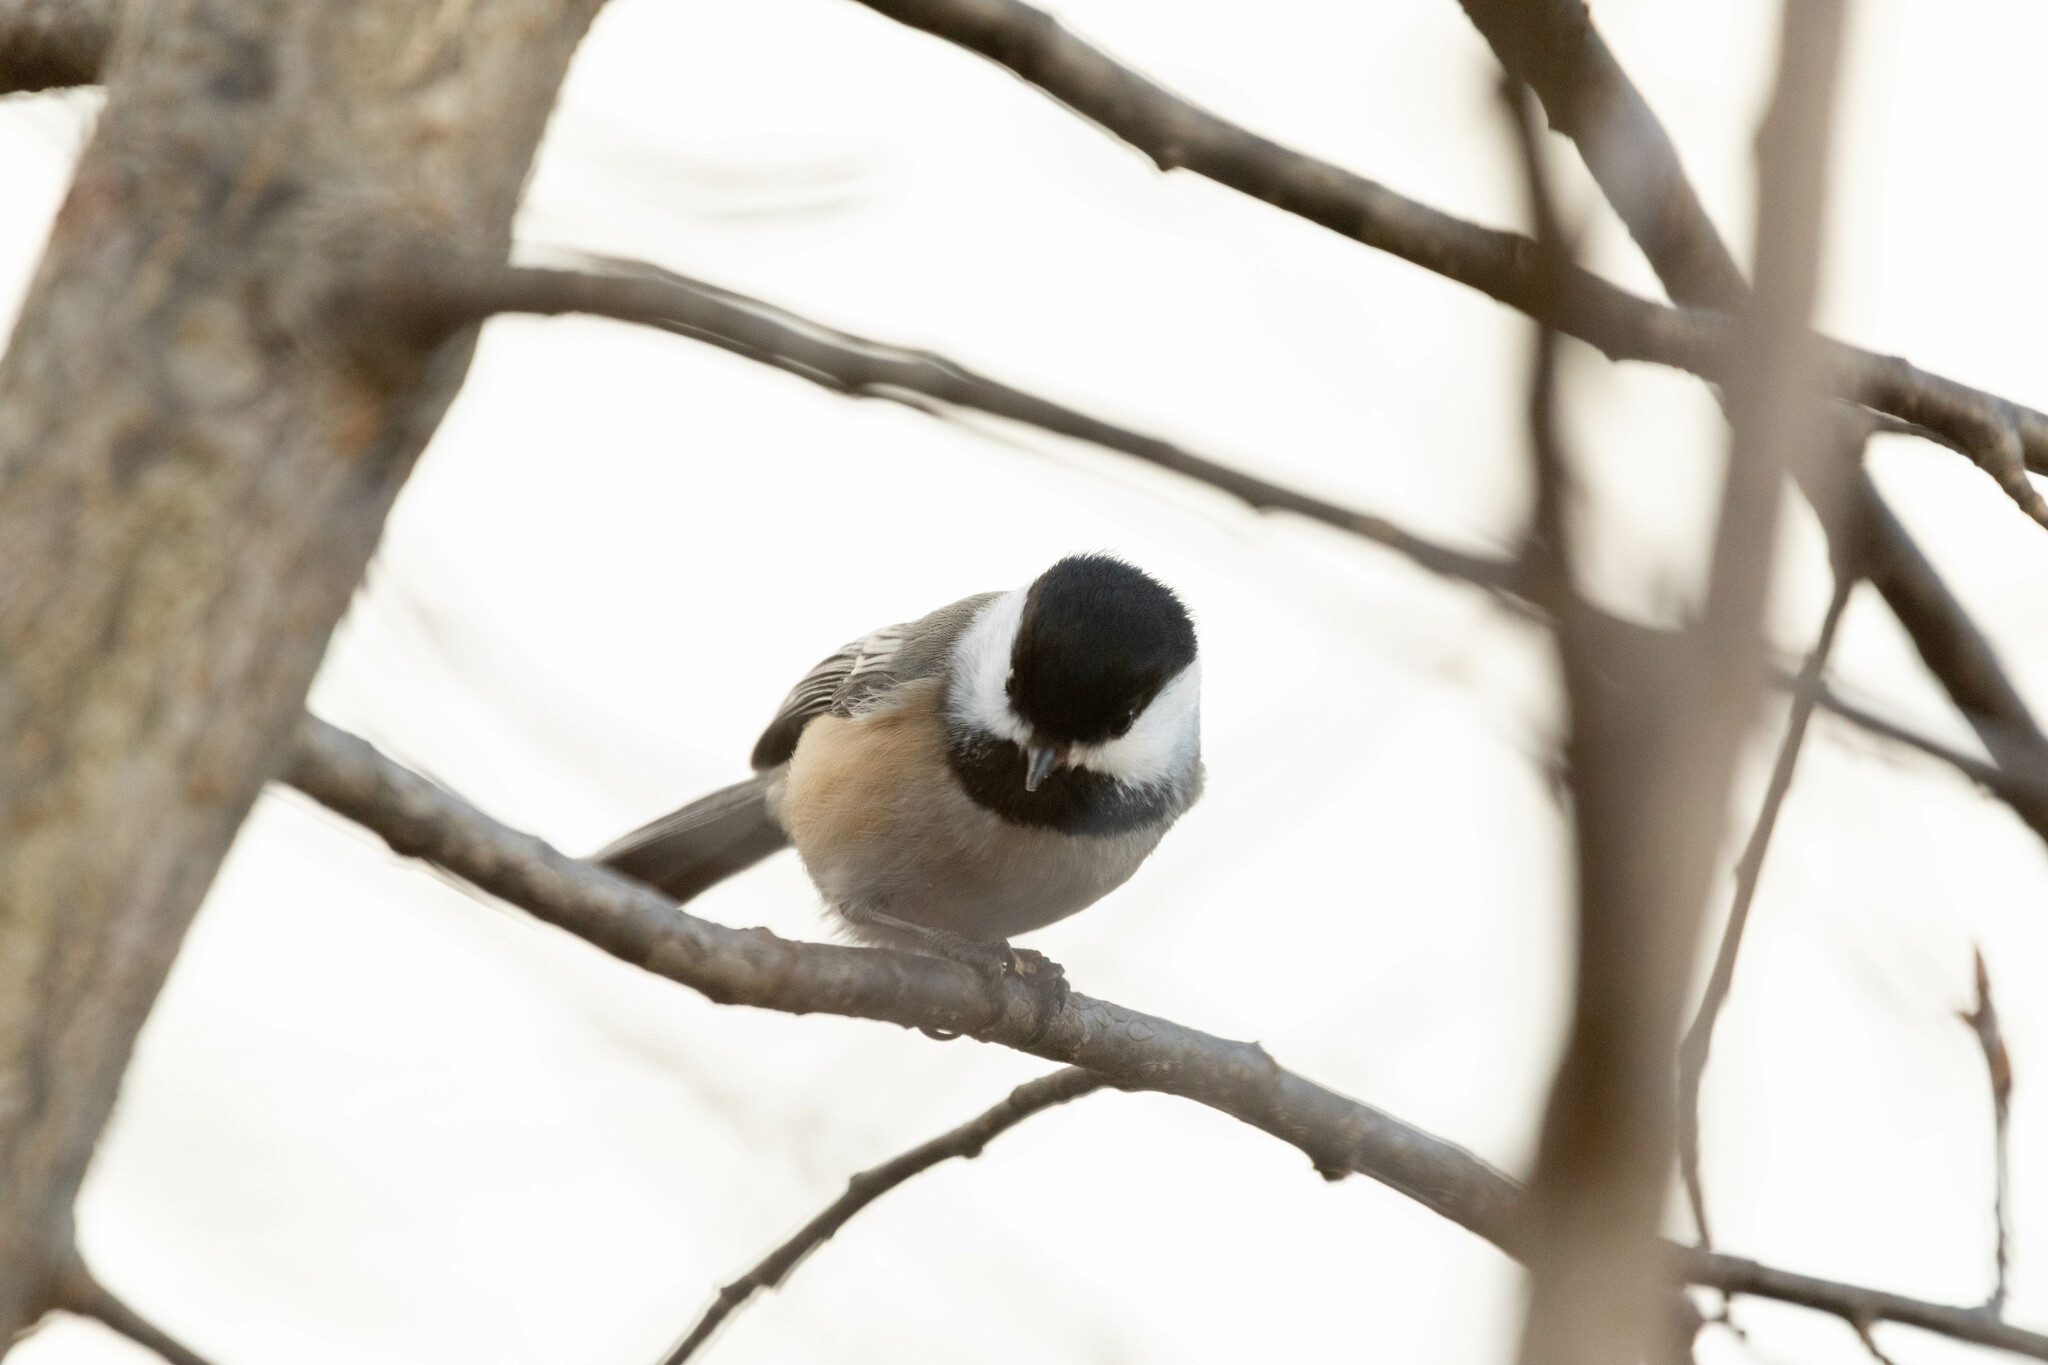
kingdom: Animalia
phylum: Chordata
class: Aves
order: Passeriformes
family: Paridae
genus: Poecile
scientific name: Poecile atricapillus
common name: Black-capped chickadee
